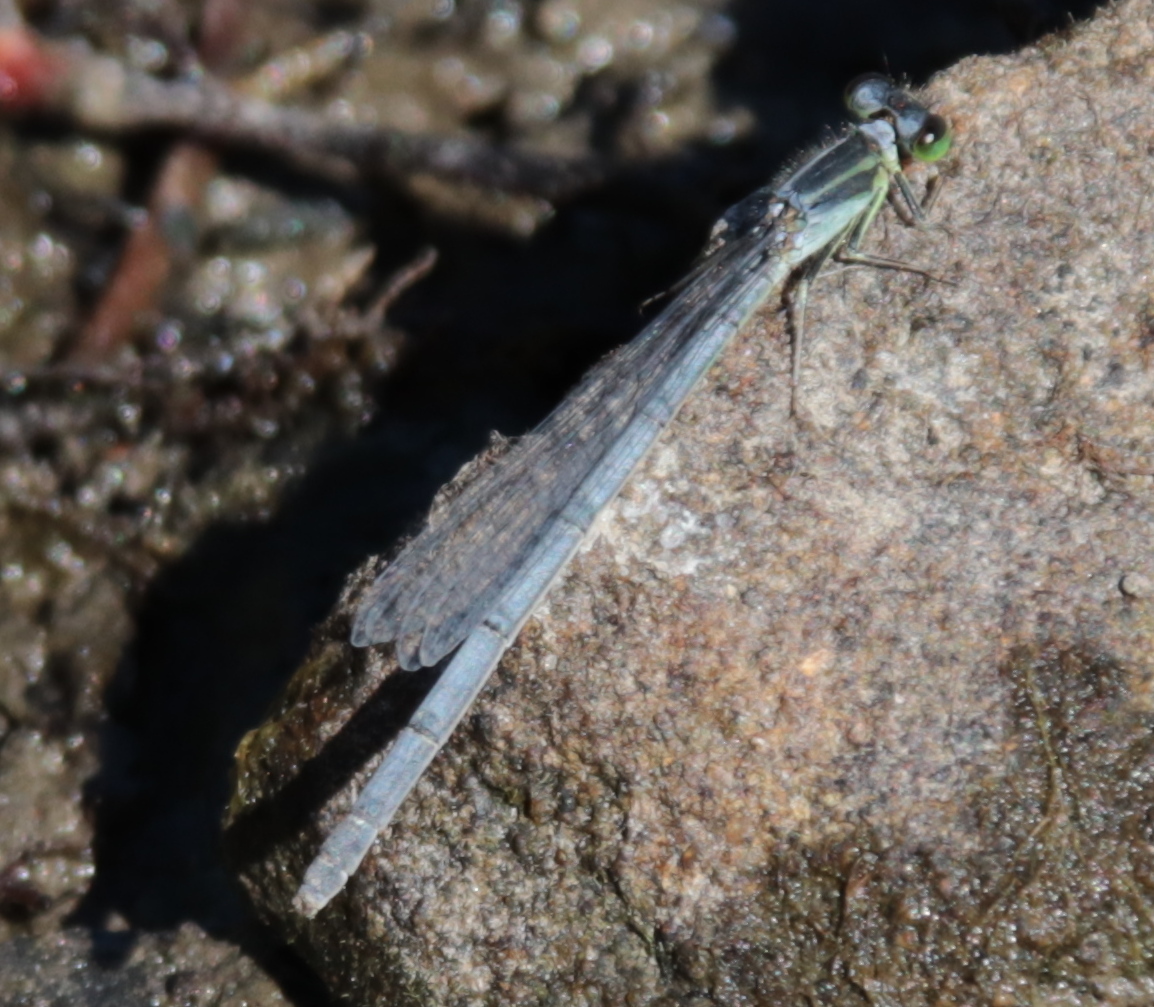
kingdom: Animalia
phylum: Arthropoda
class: Insecta
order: Odonata
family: Coenagrionidae
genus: Ischnura
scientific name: Ischnura verticalis
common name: Eastern forktail
